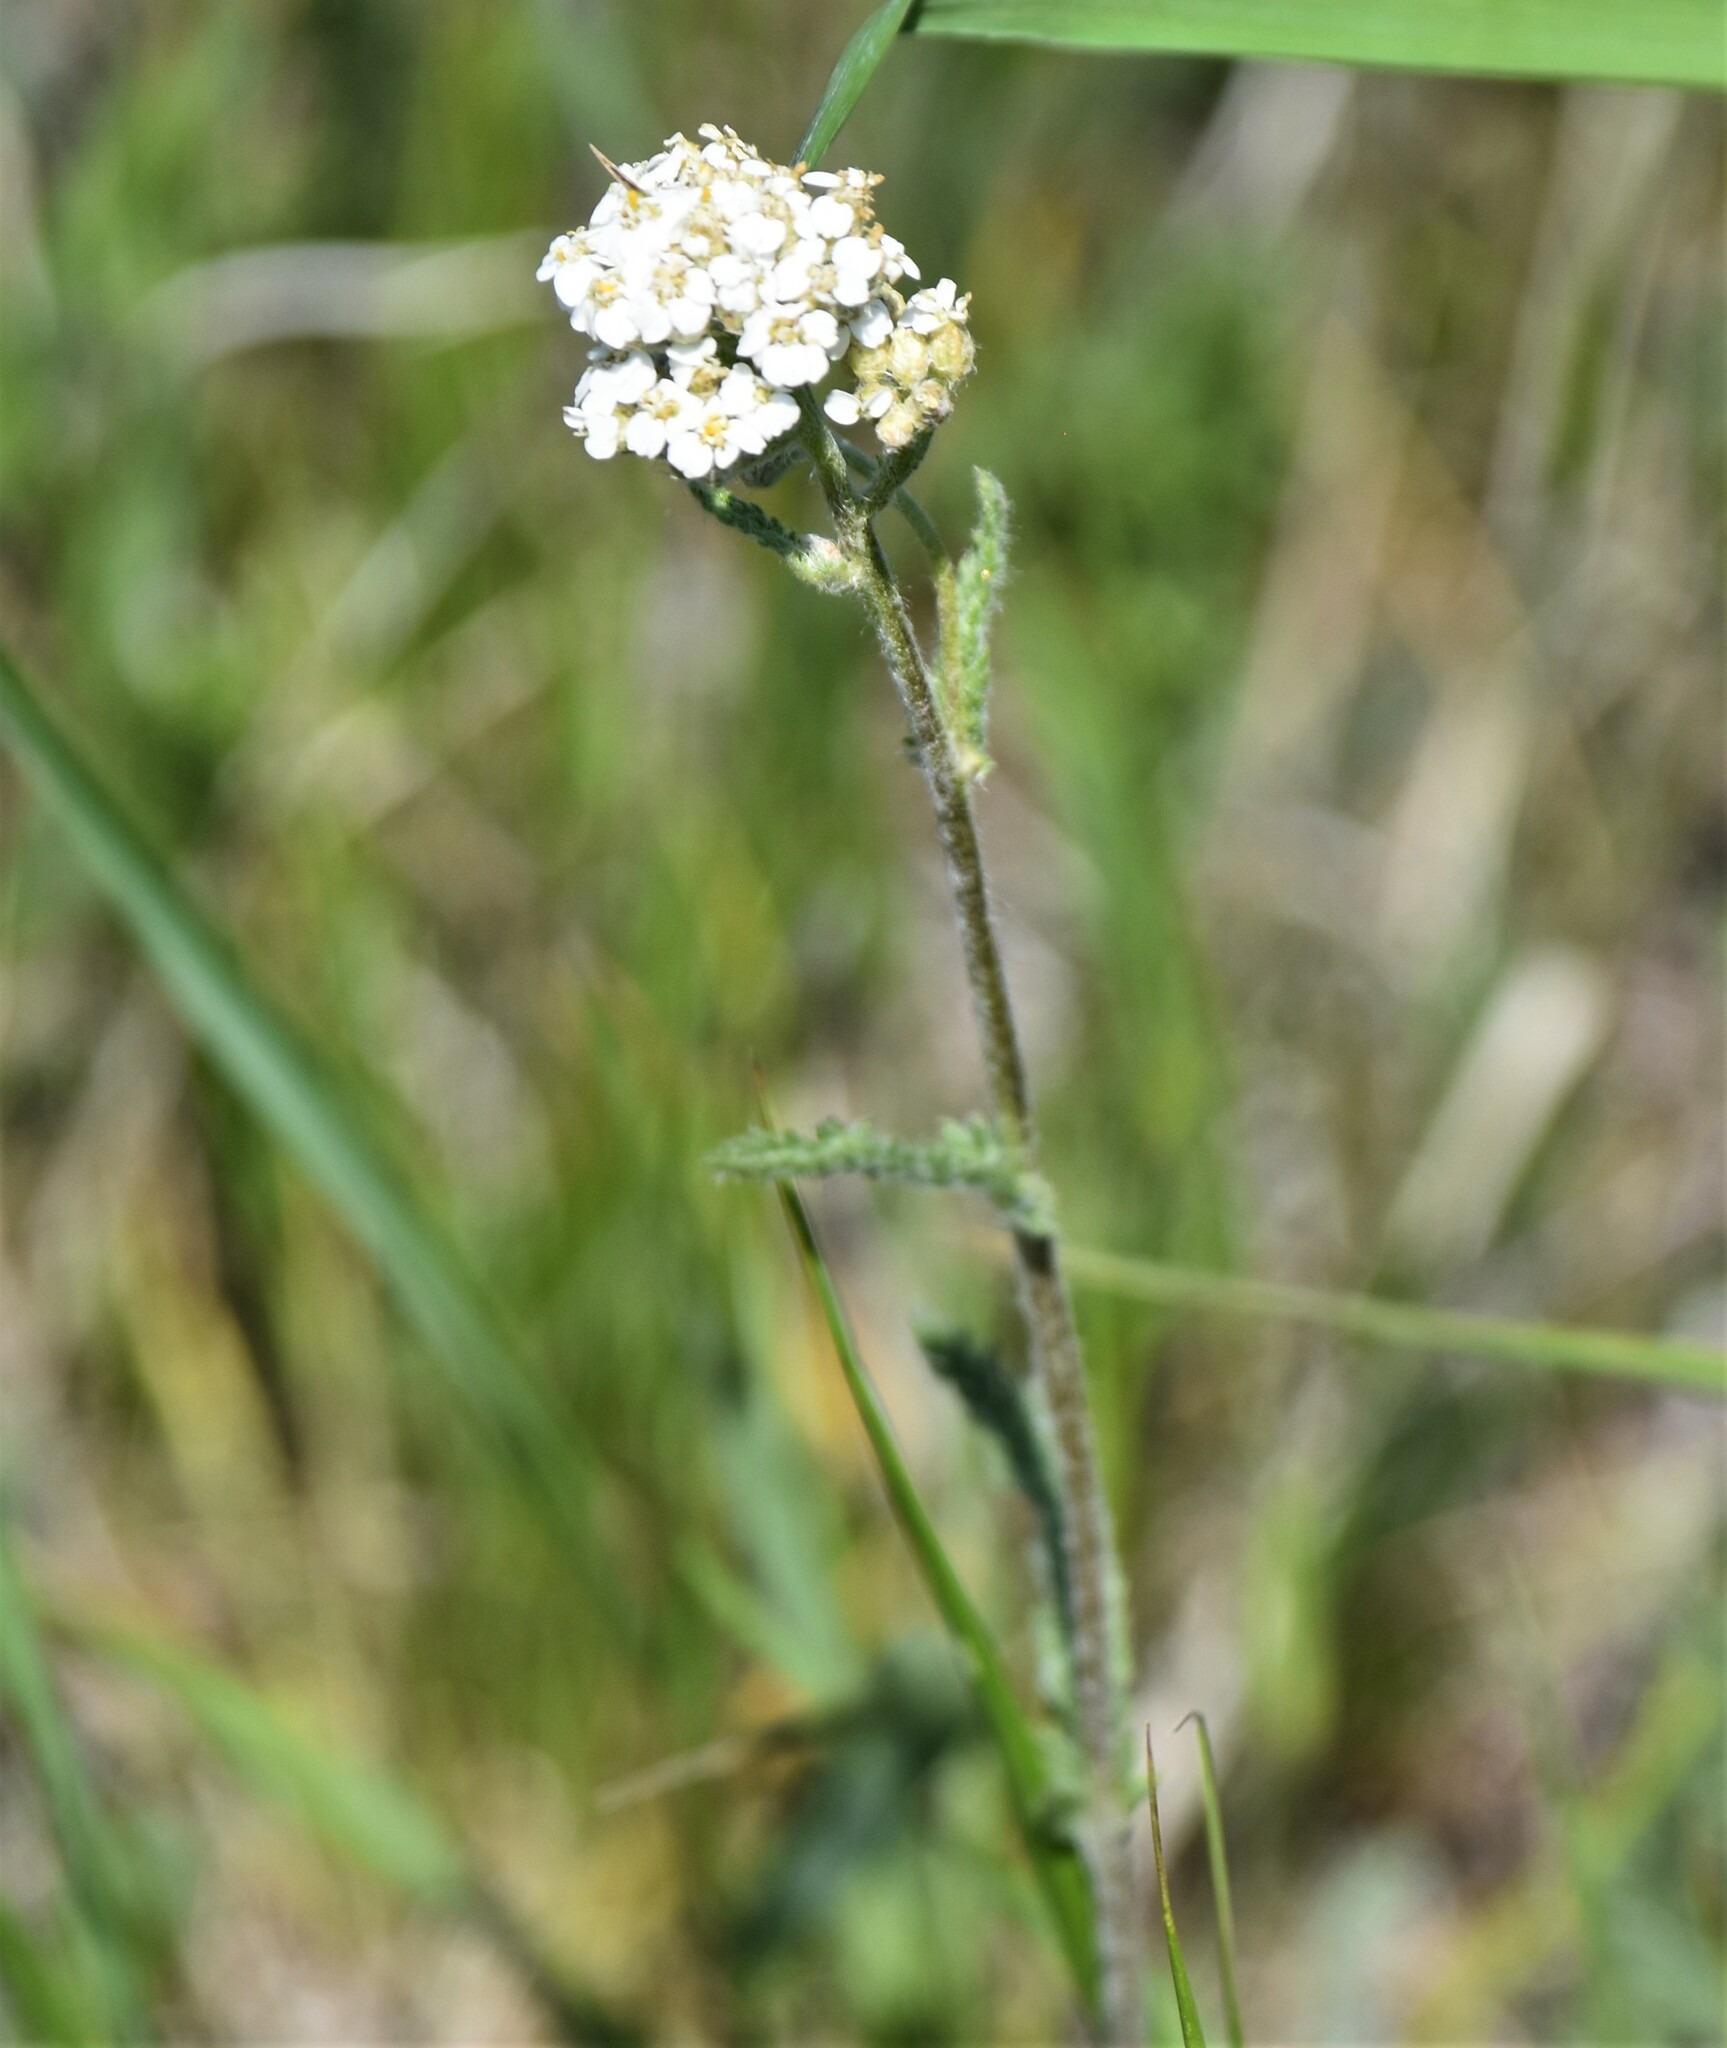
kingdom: Plantae
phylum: Tracheophyta
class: Magnoliopsida
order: Asterales
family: Asteraceae
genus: Achillea
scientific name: Achillea millefolium
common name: Yarrow
